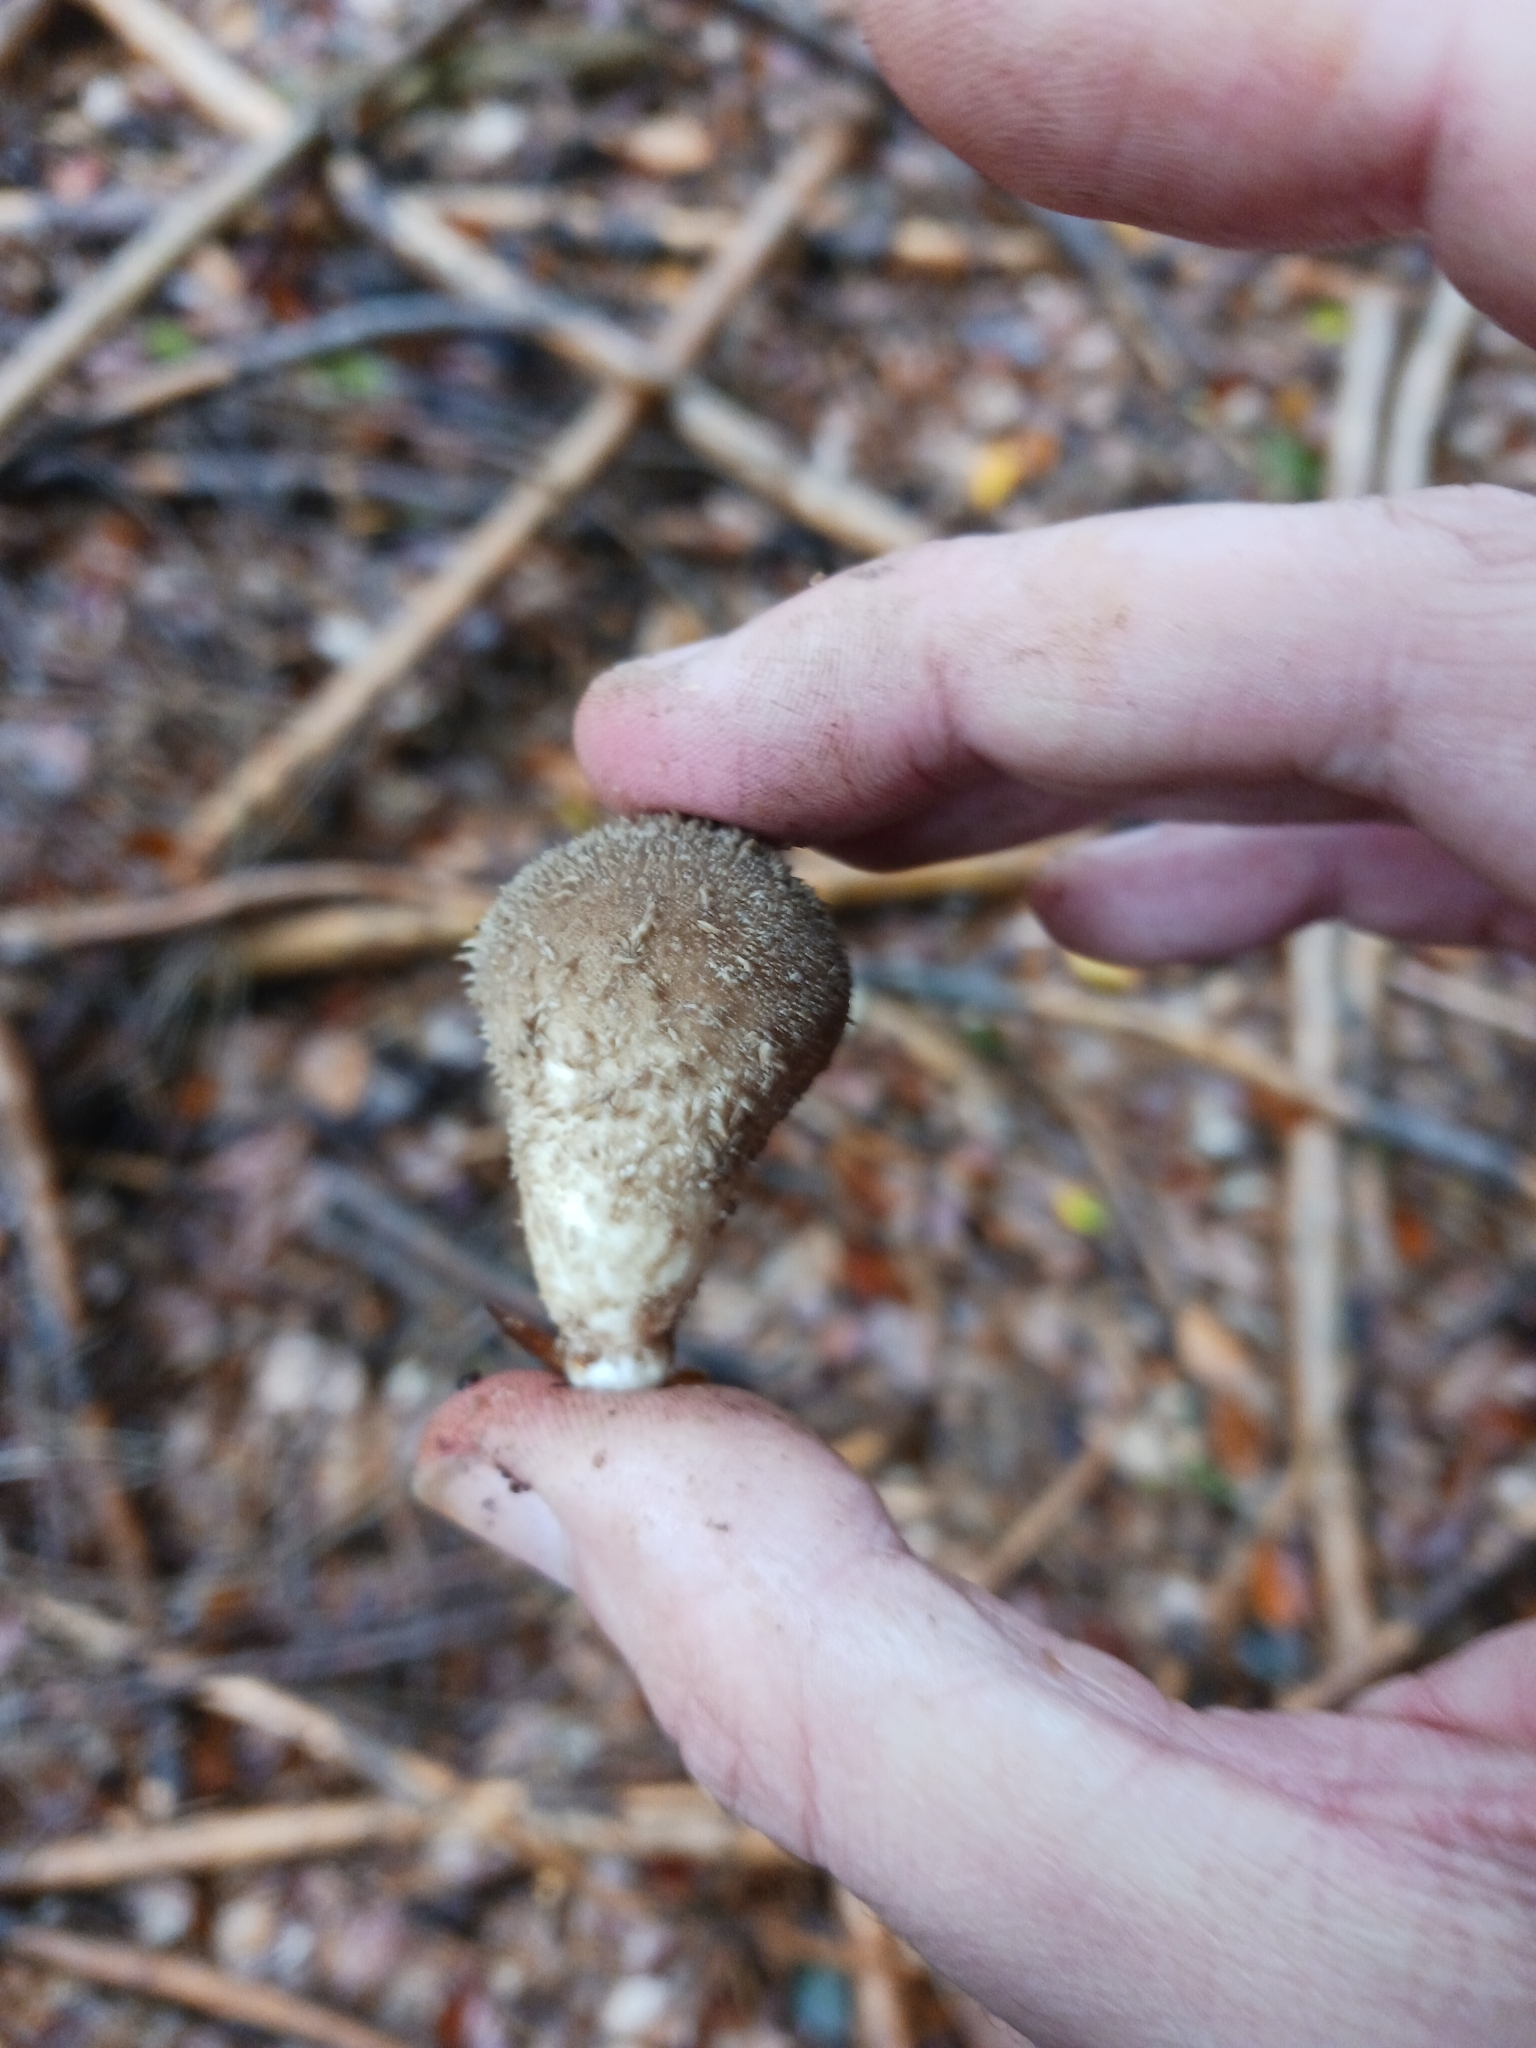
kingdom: Fungi
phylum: Basidiomycota
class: Agaricomycetes
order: Agaricales
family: Lycoperdaceae
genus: Lycoperdon
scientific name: Lycoperdon echinatum
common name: Hedgehog puffball
